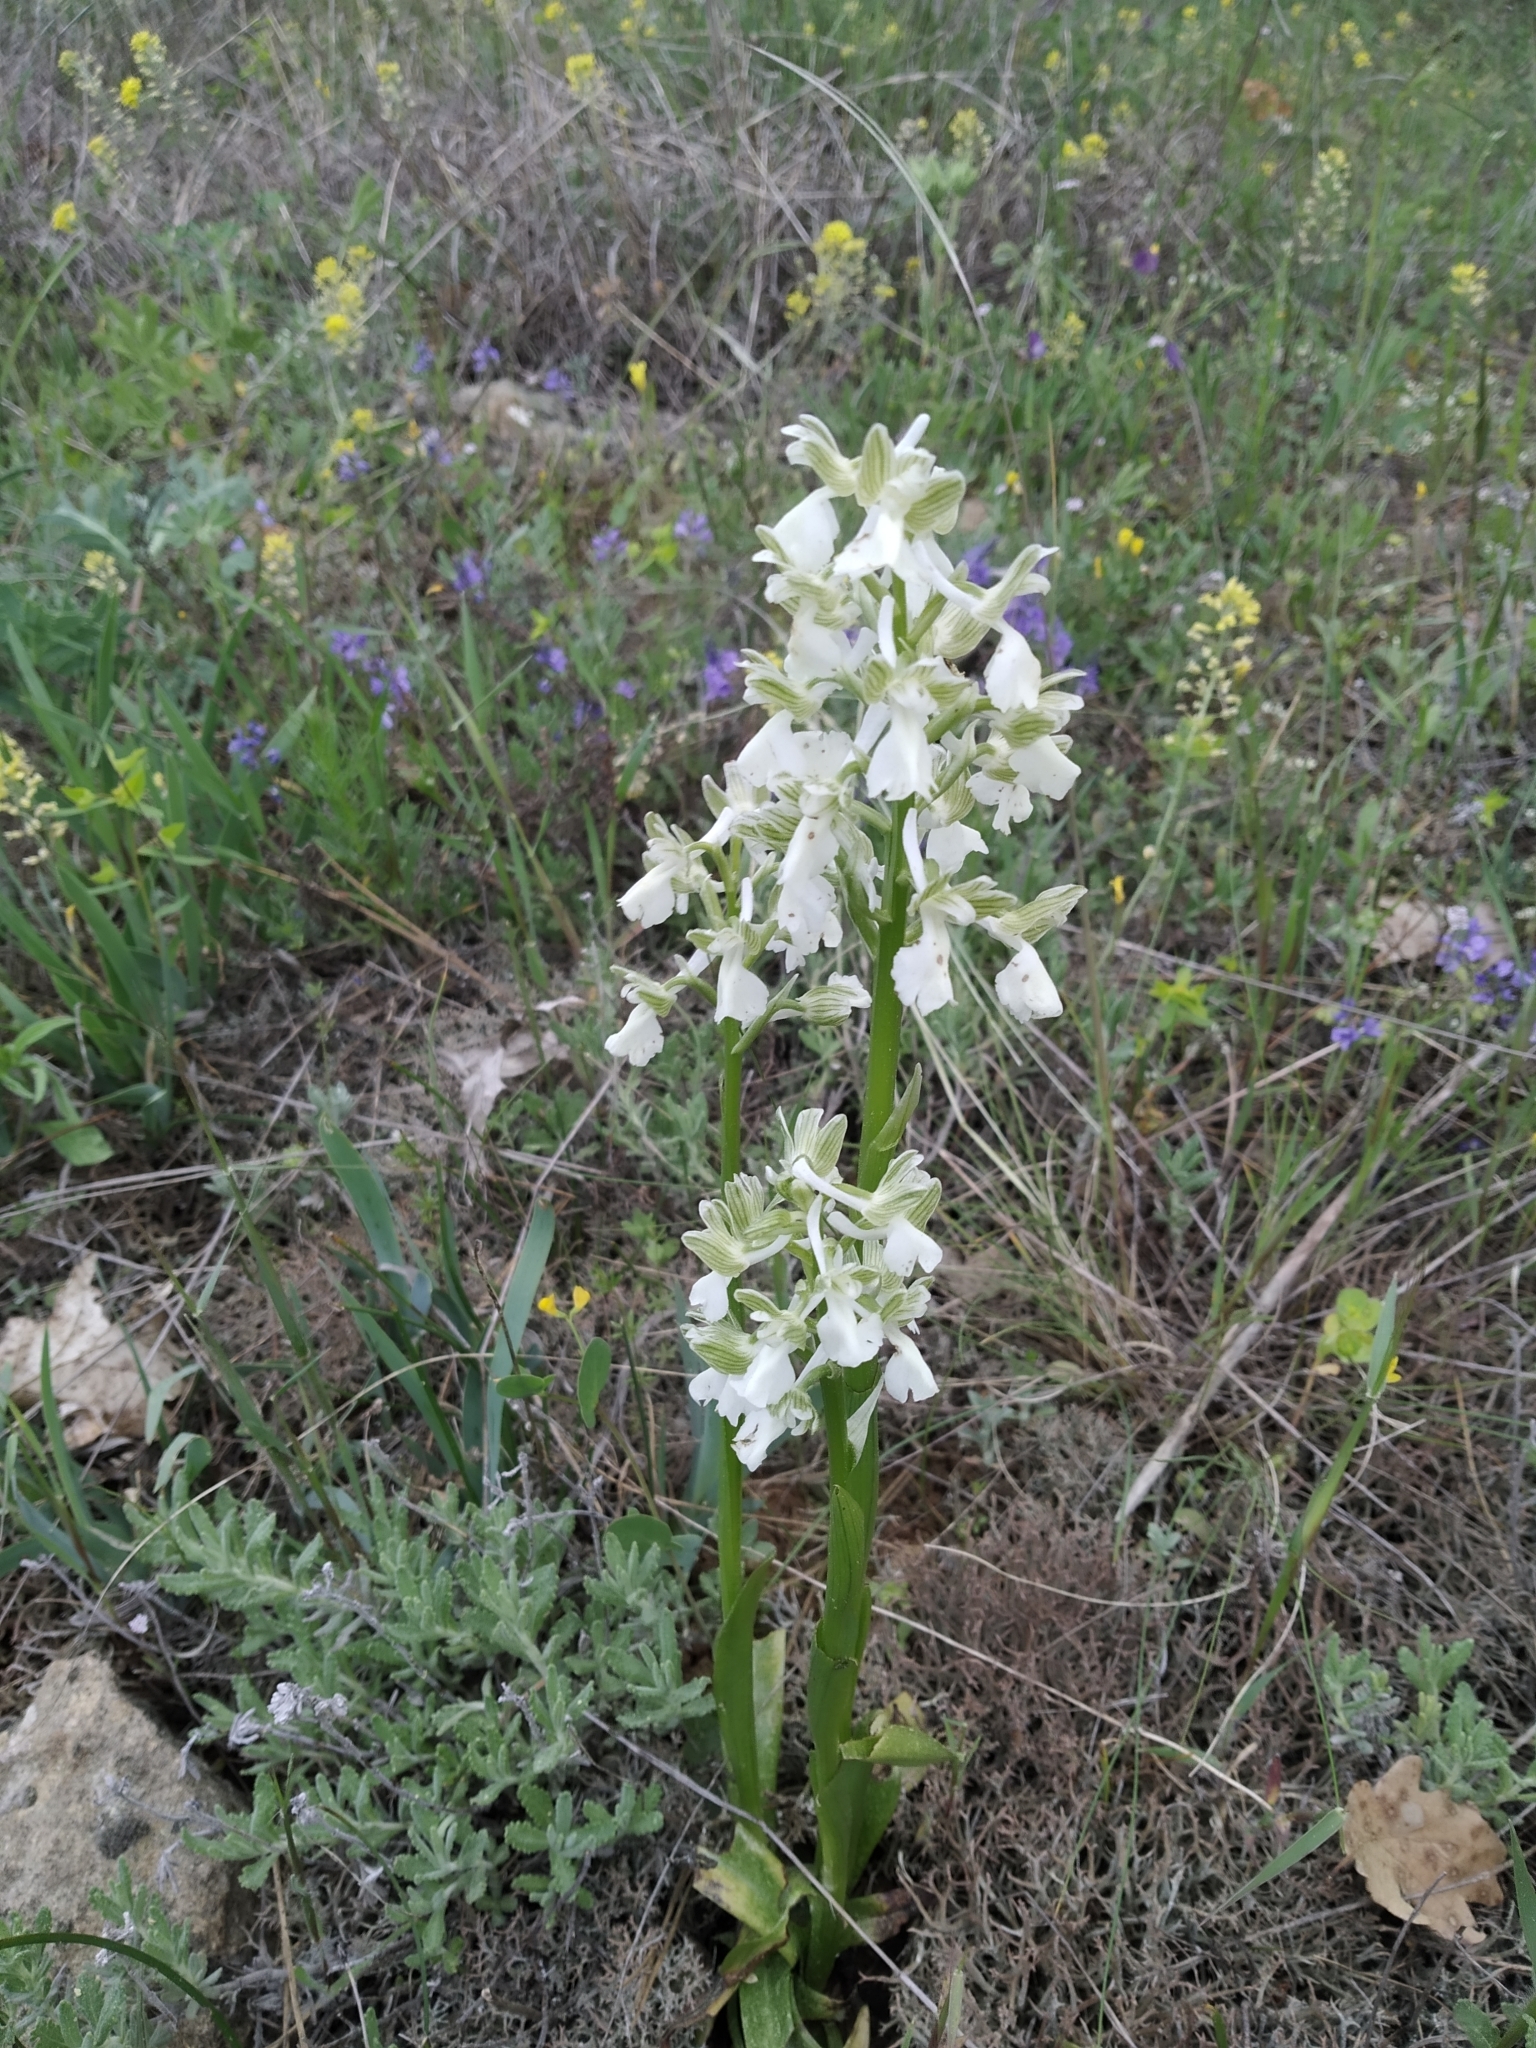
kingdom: Plantae
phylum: Tracheophyta
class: Liliopsida
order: Asparagales
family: Orchidaceae
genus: Anacamptis
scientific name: Anacamptis morio
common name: Green-winged orchid
